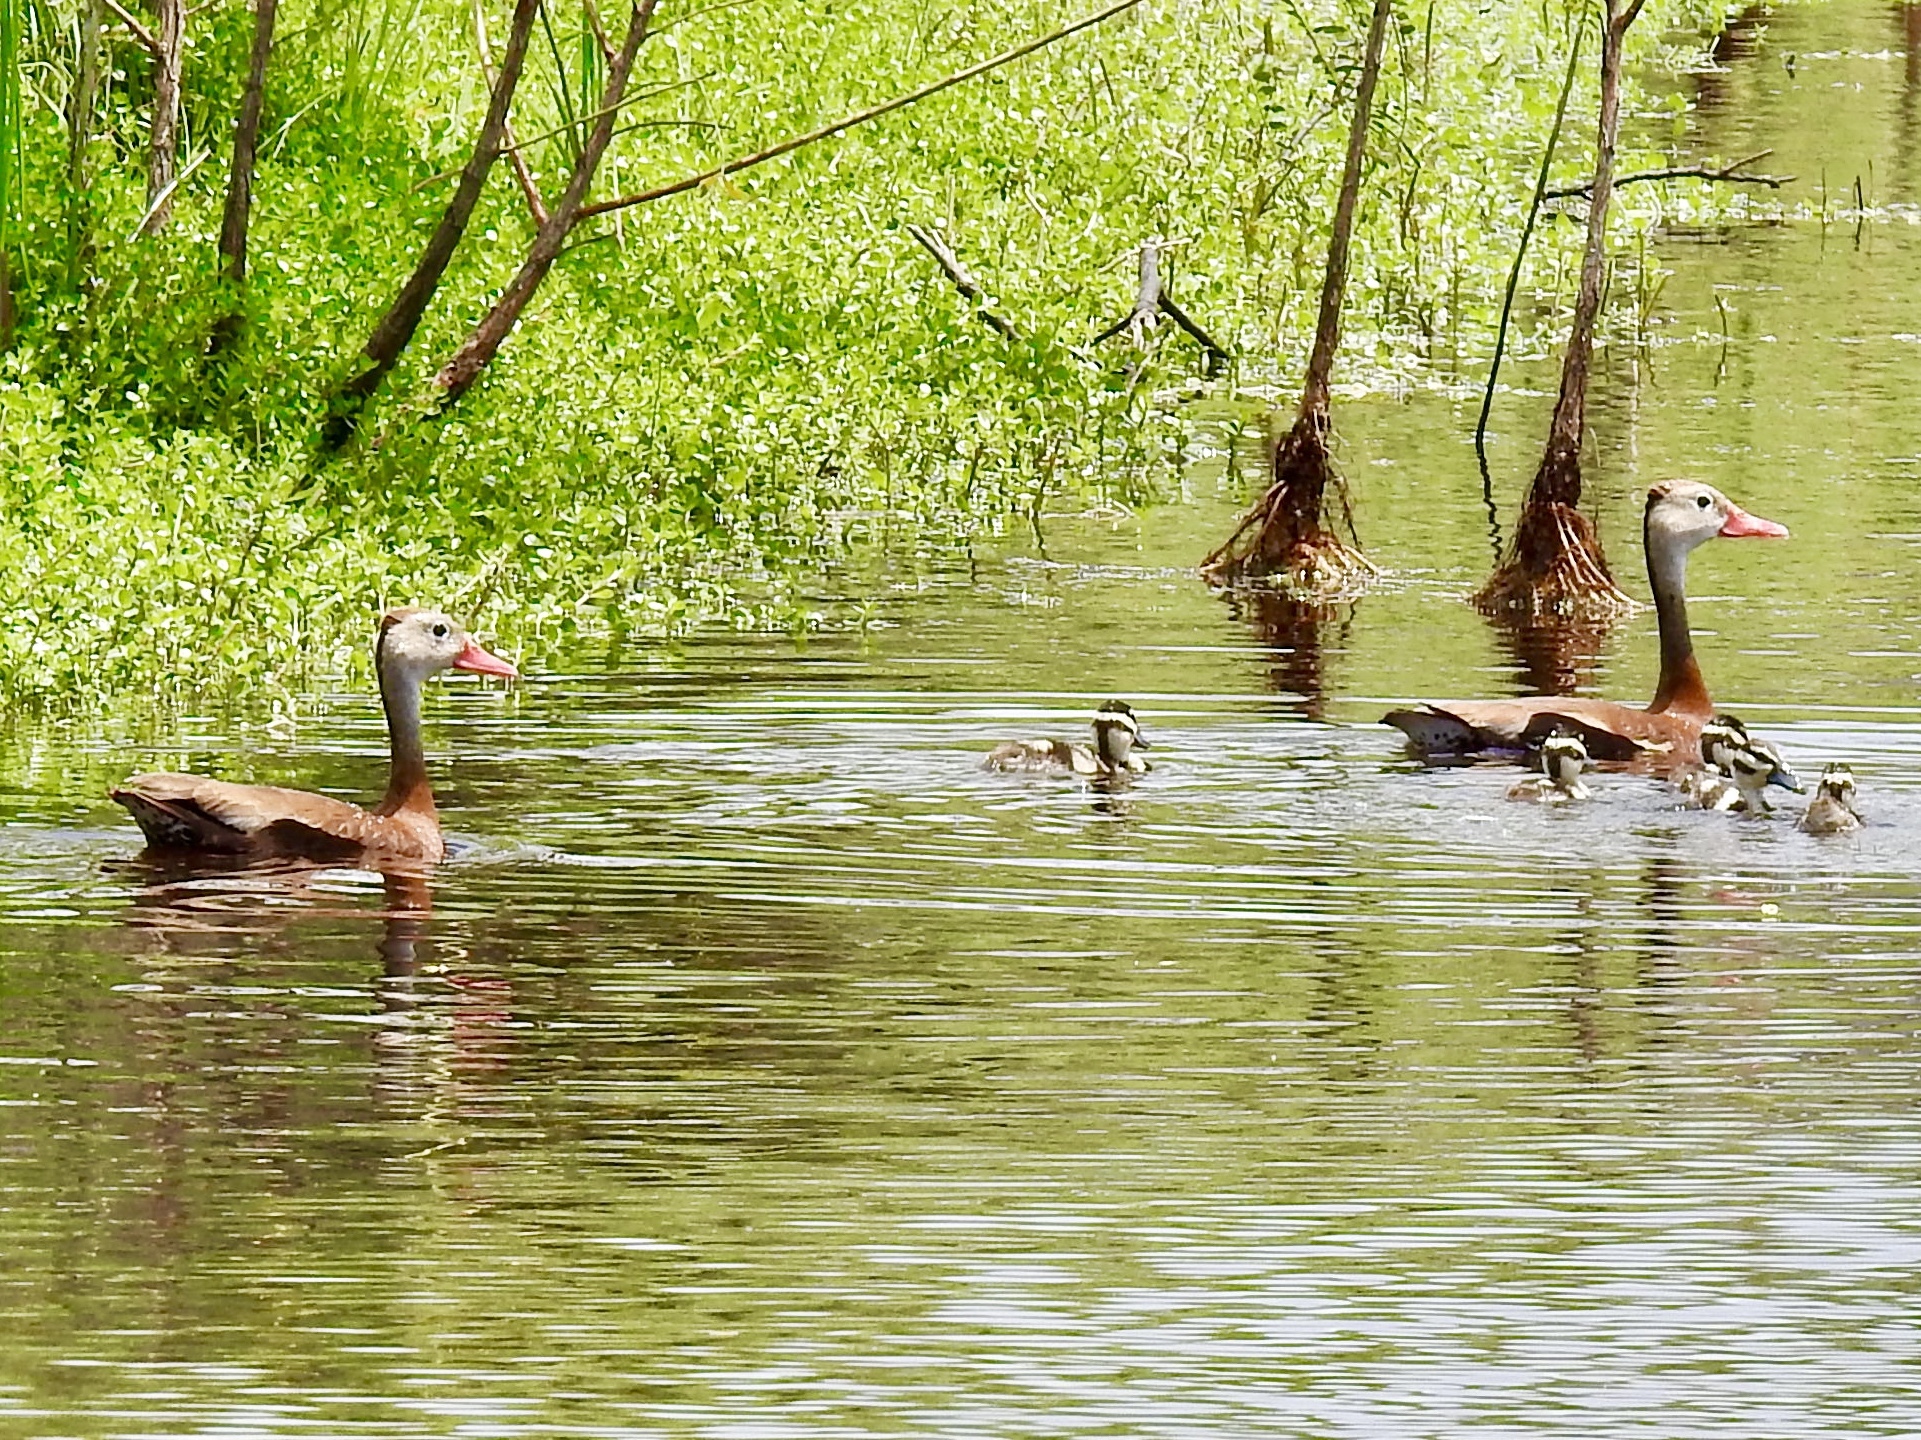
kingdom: Animalia
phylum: Chordata
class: Aves
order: Anseriformes
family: Anatidae
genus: Dendrocygna
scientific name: Dendrocygna autumnalis
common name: Black-bellied whistling duck
